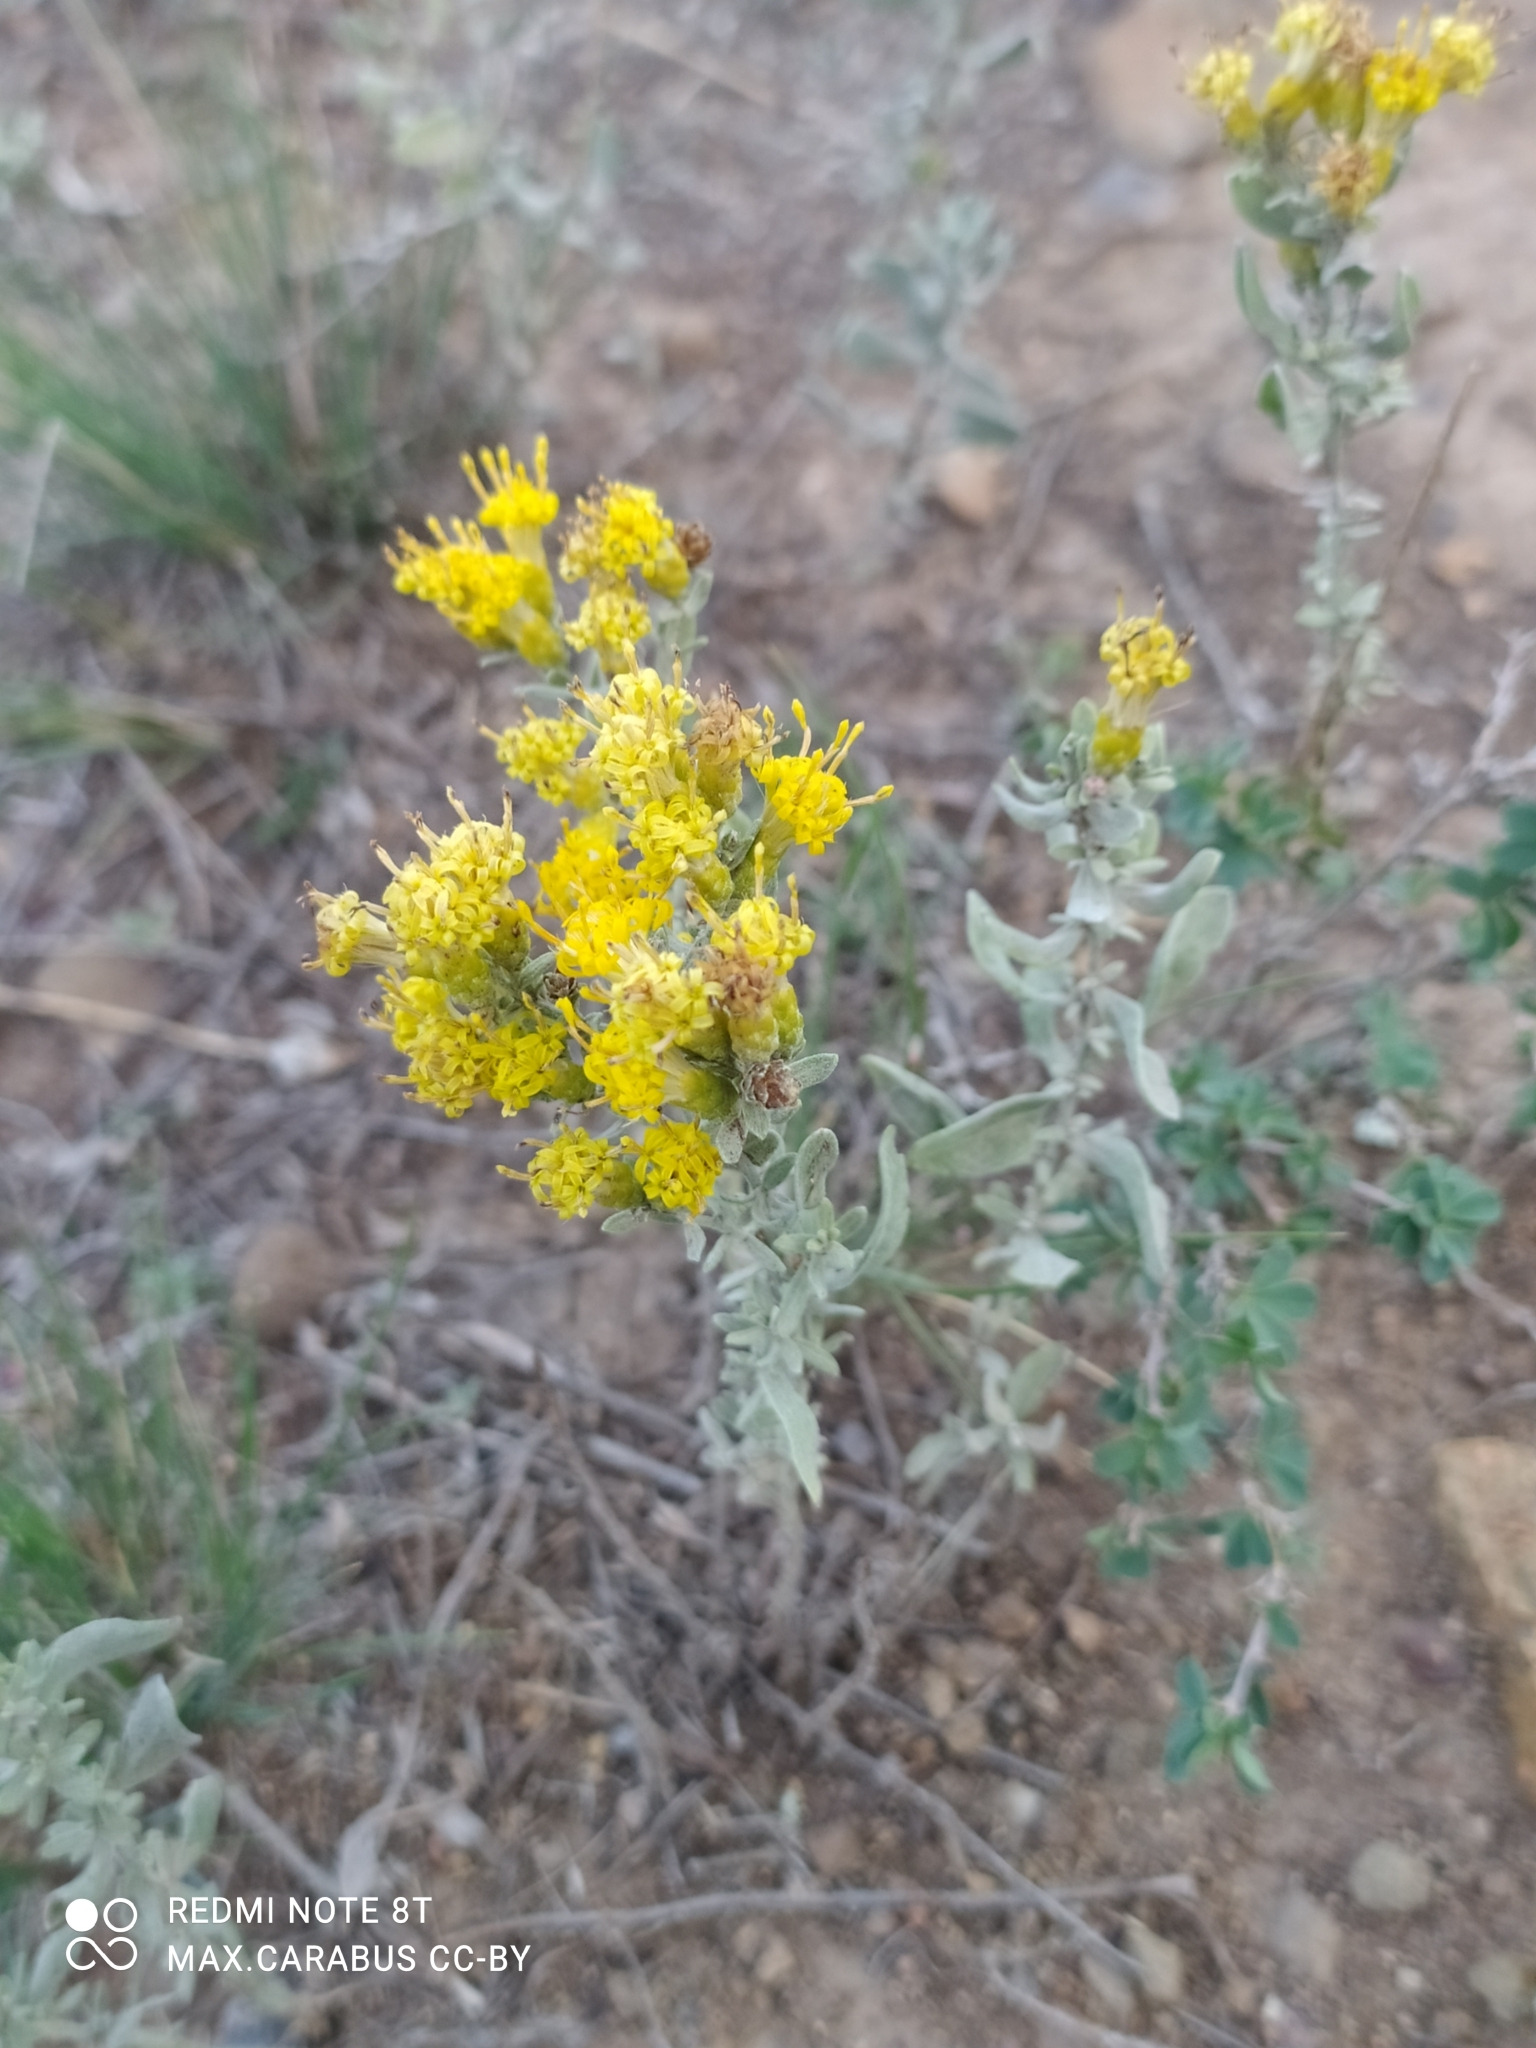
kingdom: Plantae
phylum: Tracheophyta
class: Magnoliopsida
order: Asterales
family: Asteraceae
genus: Galatella
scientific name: Galatella villosa
